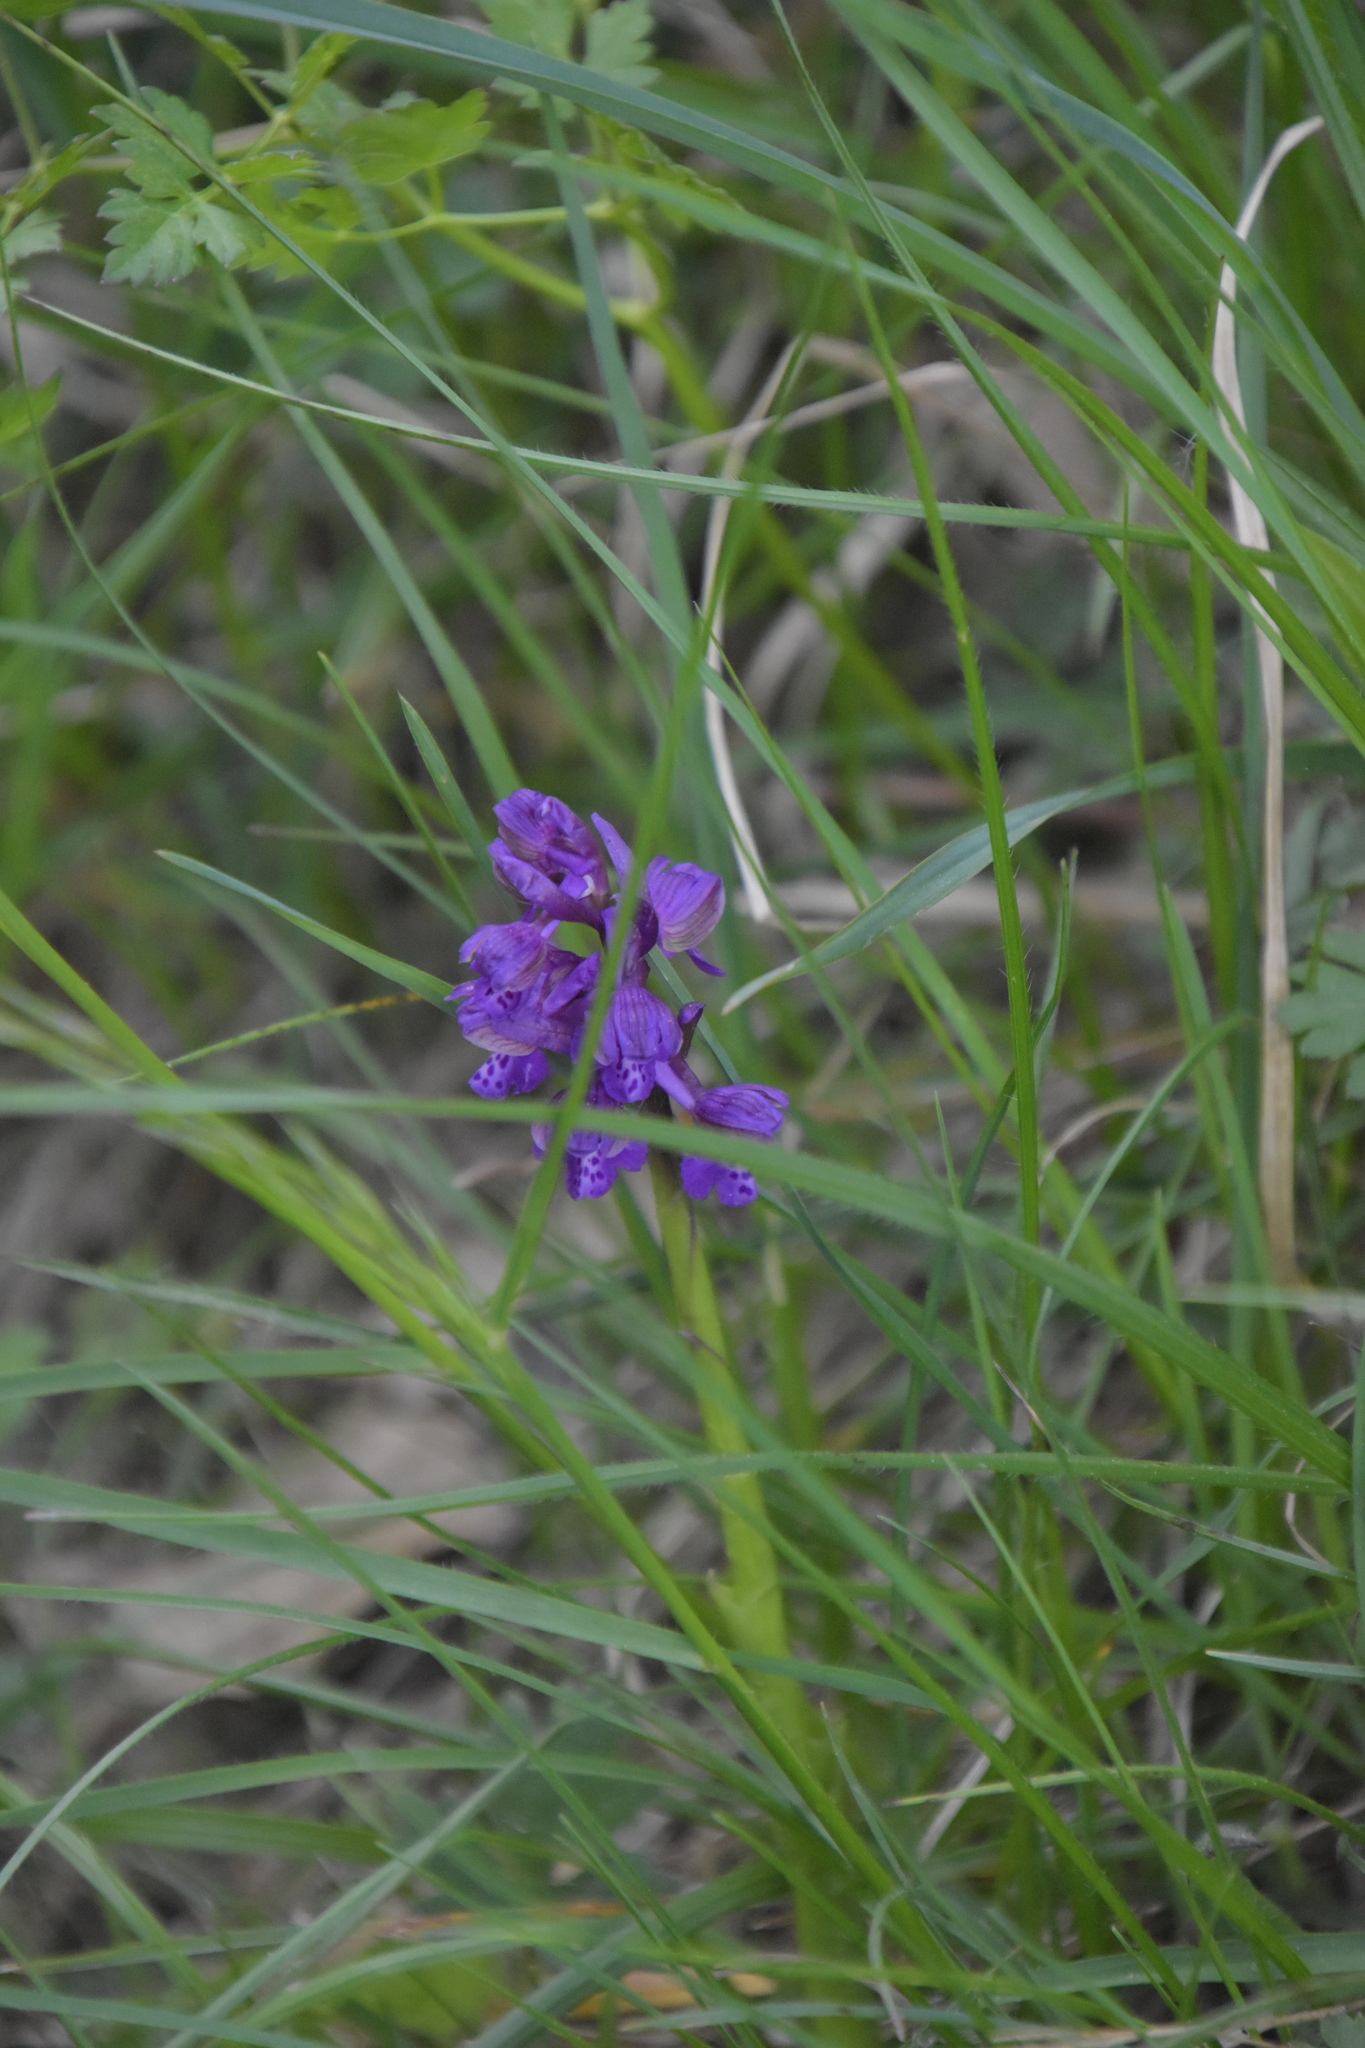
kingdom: Plantae
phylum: Tracheophyta
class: Liliopsida
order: Asparagales
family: Orchidaceae
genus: Anacamptis
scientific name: Anacamptis morio
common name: Green-winged orchid
